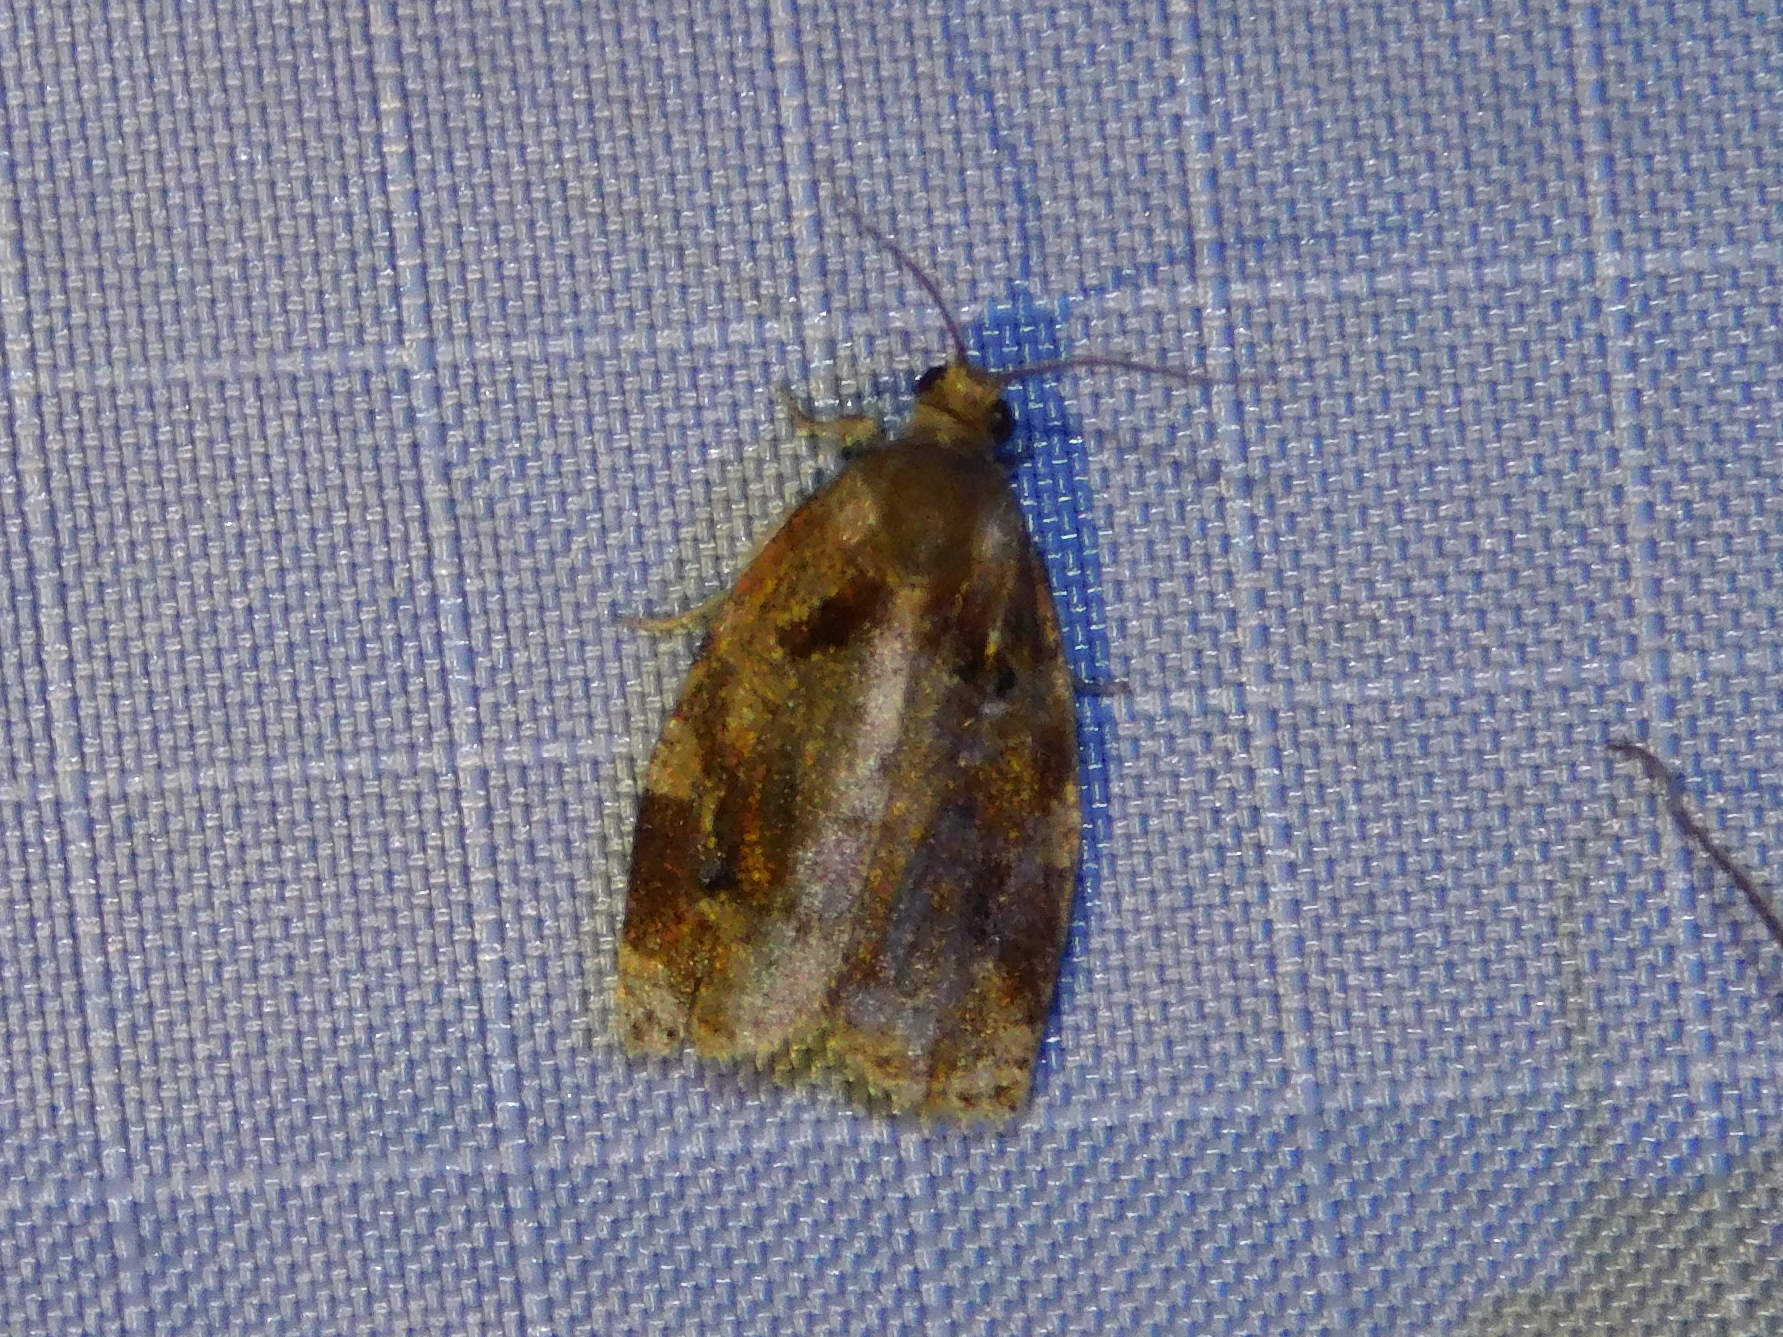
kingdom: Animalia
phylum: Arthropoda
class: Insecta
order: Lepidoptera
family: Tortricidae
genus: Archips
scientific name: Archips xylosteana
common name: Variegated golden tortrix
